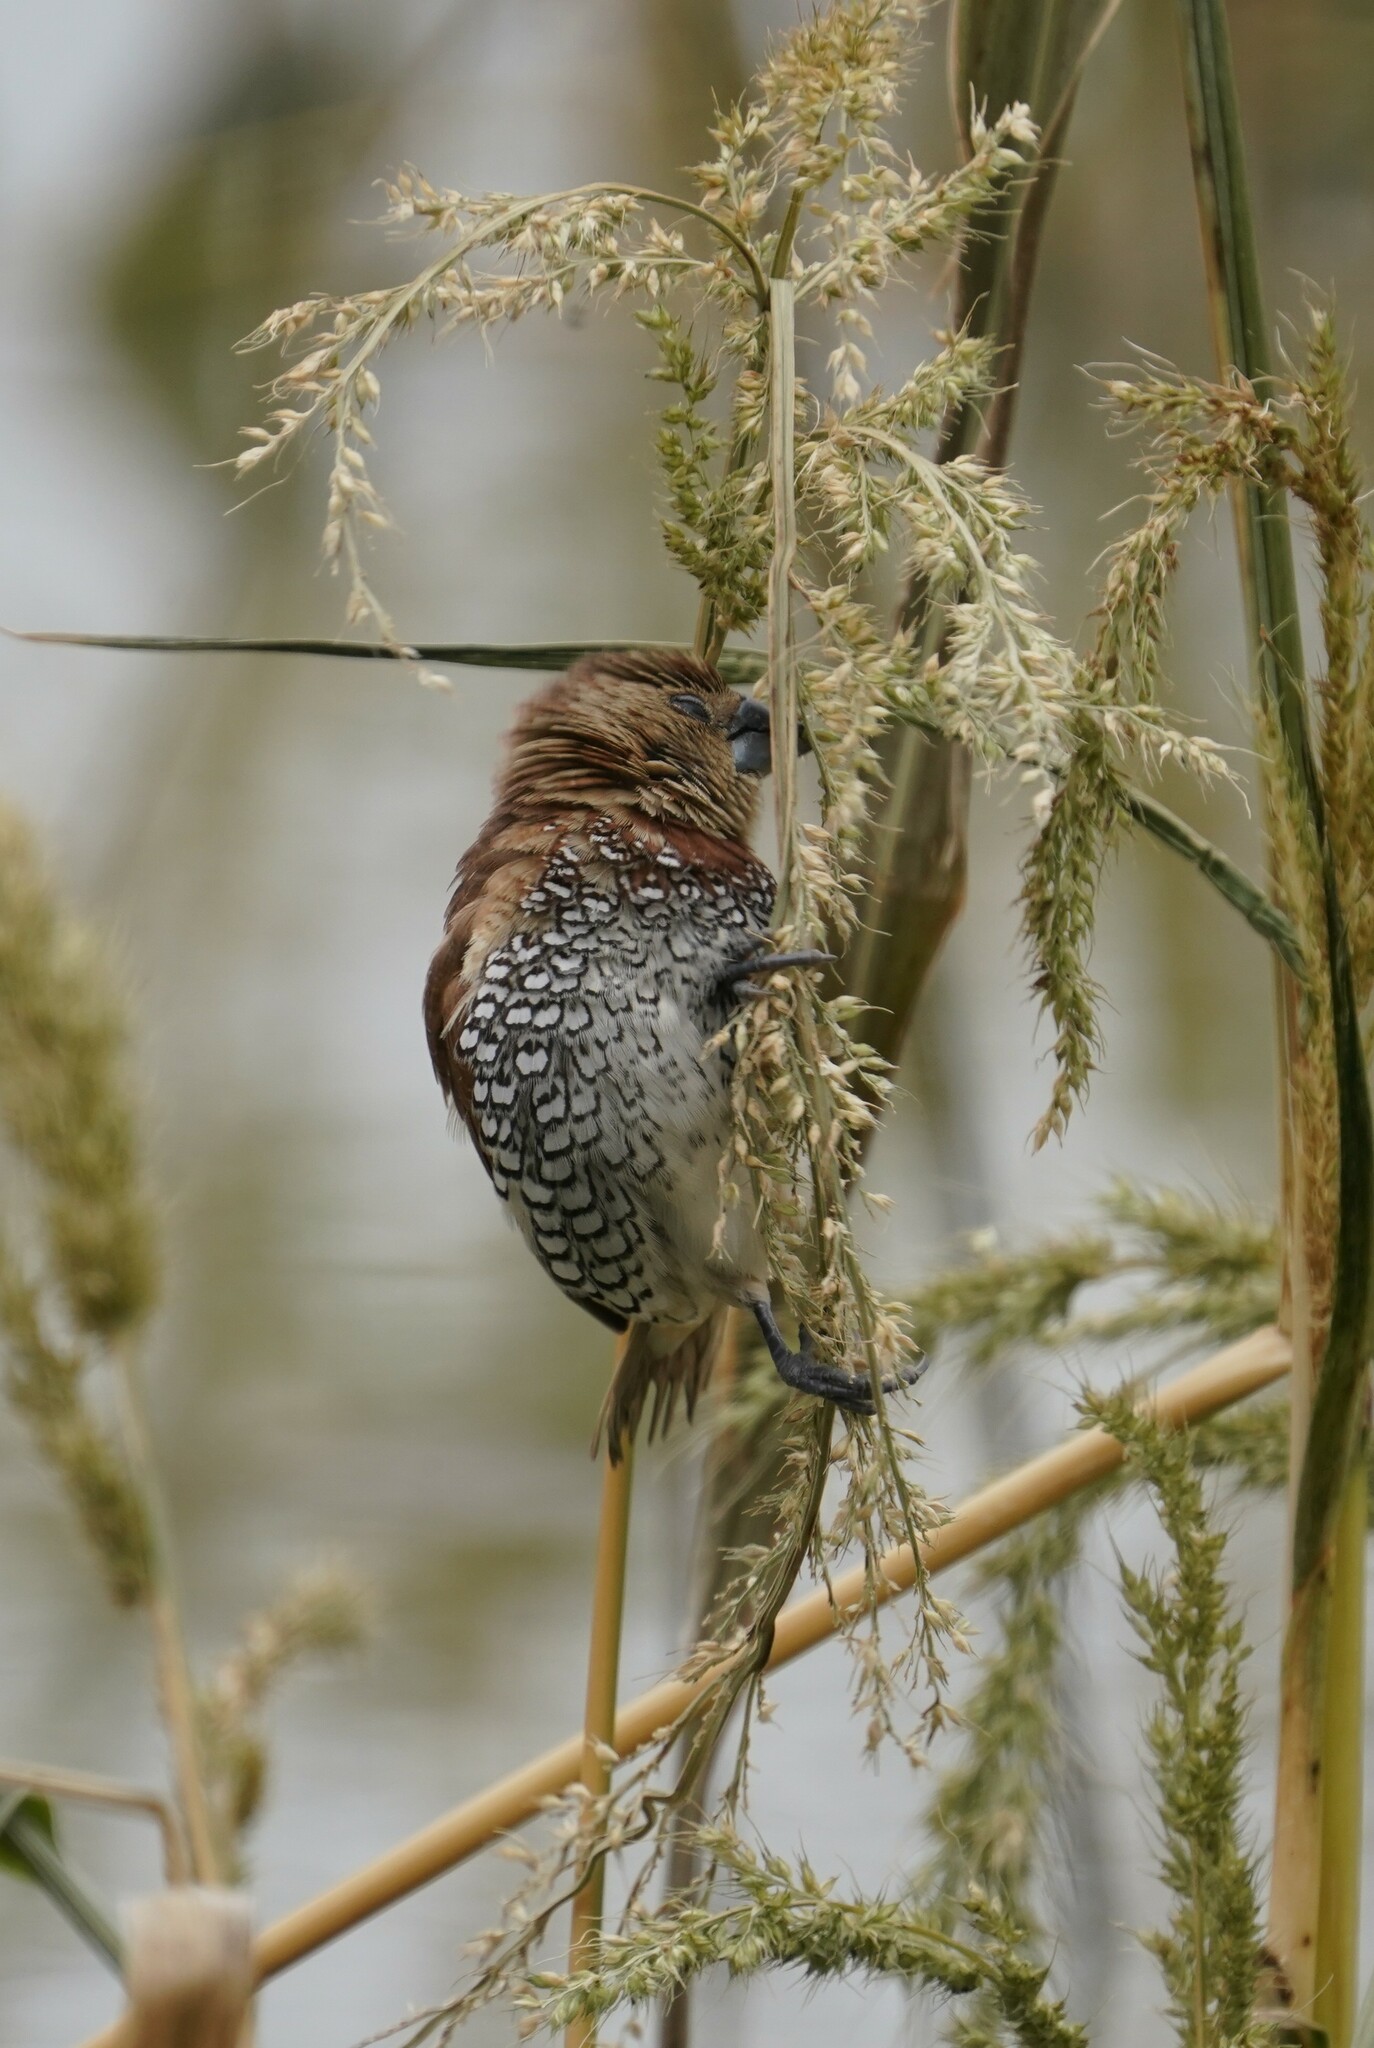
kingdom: Animalia
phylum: Chordata
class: Aves
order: Passeriformes
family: Estrildidae
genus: Lonchura
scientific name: Lonchura punctulata
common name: Scaly-breasted munia
